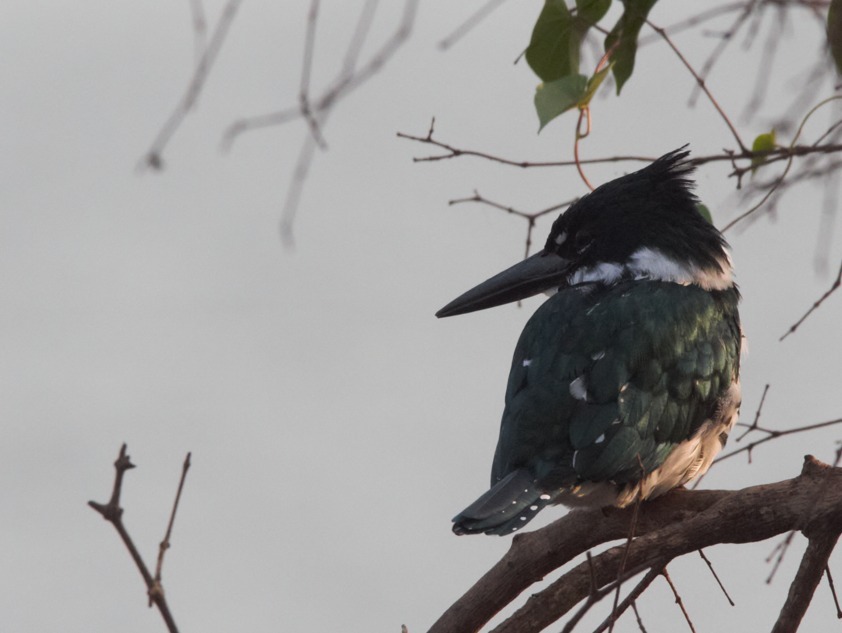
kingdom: Animalia
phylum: Chordata
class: Aves
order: Coraciiformes
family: Alcedinidae
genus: Chloroceryle
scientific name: Chloroceryle amazona
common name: Amazon kingfisher
